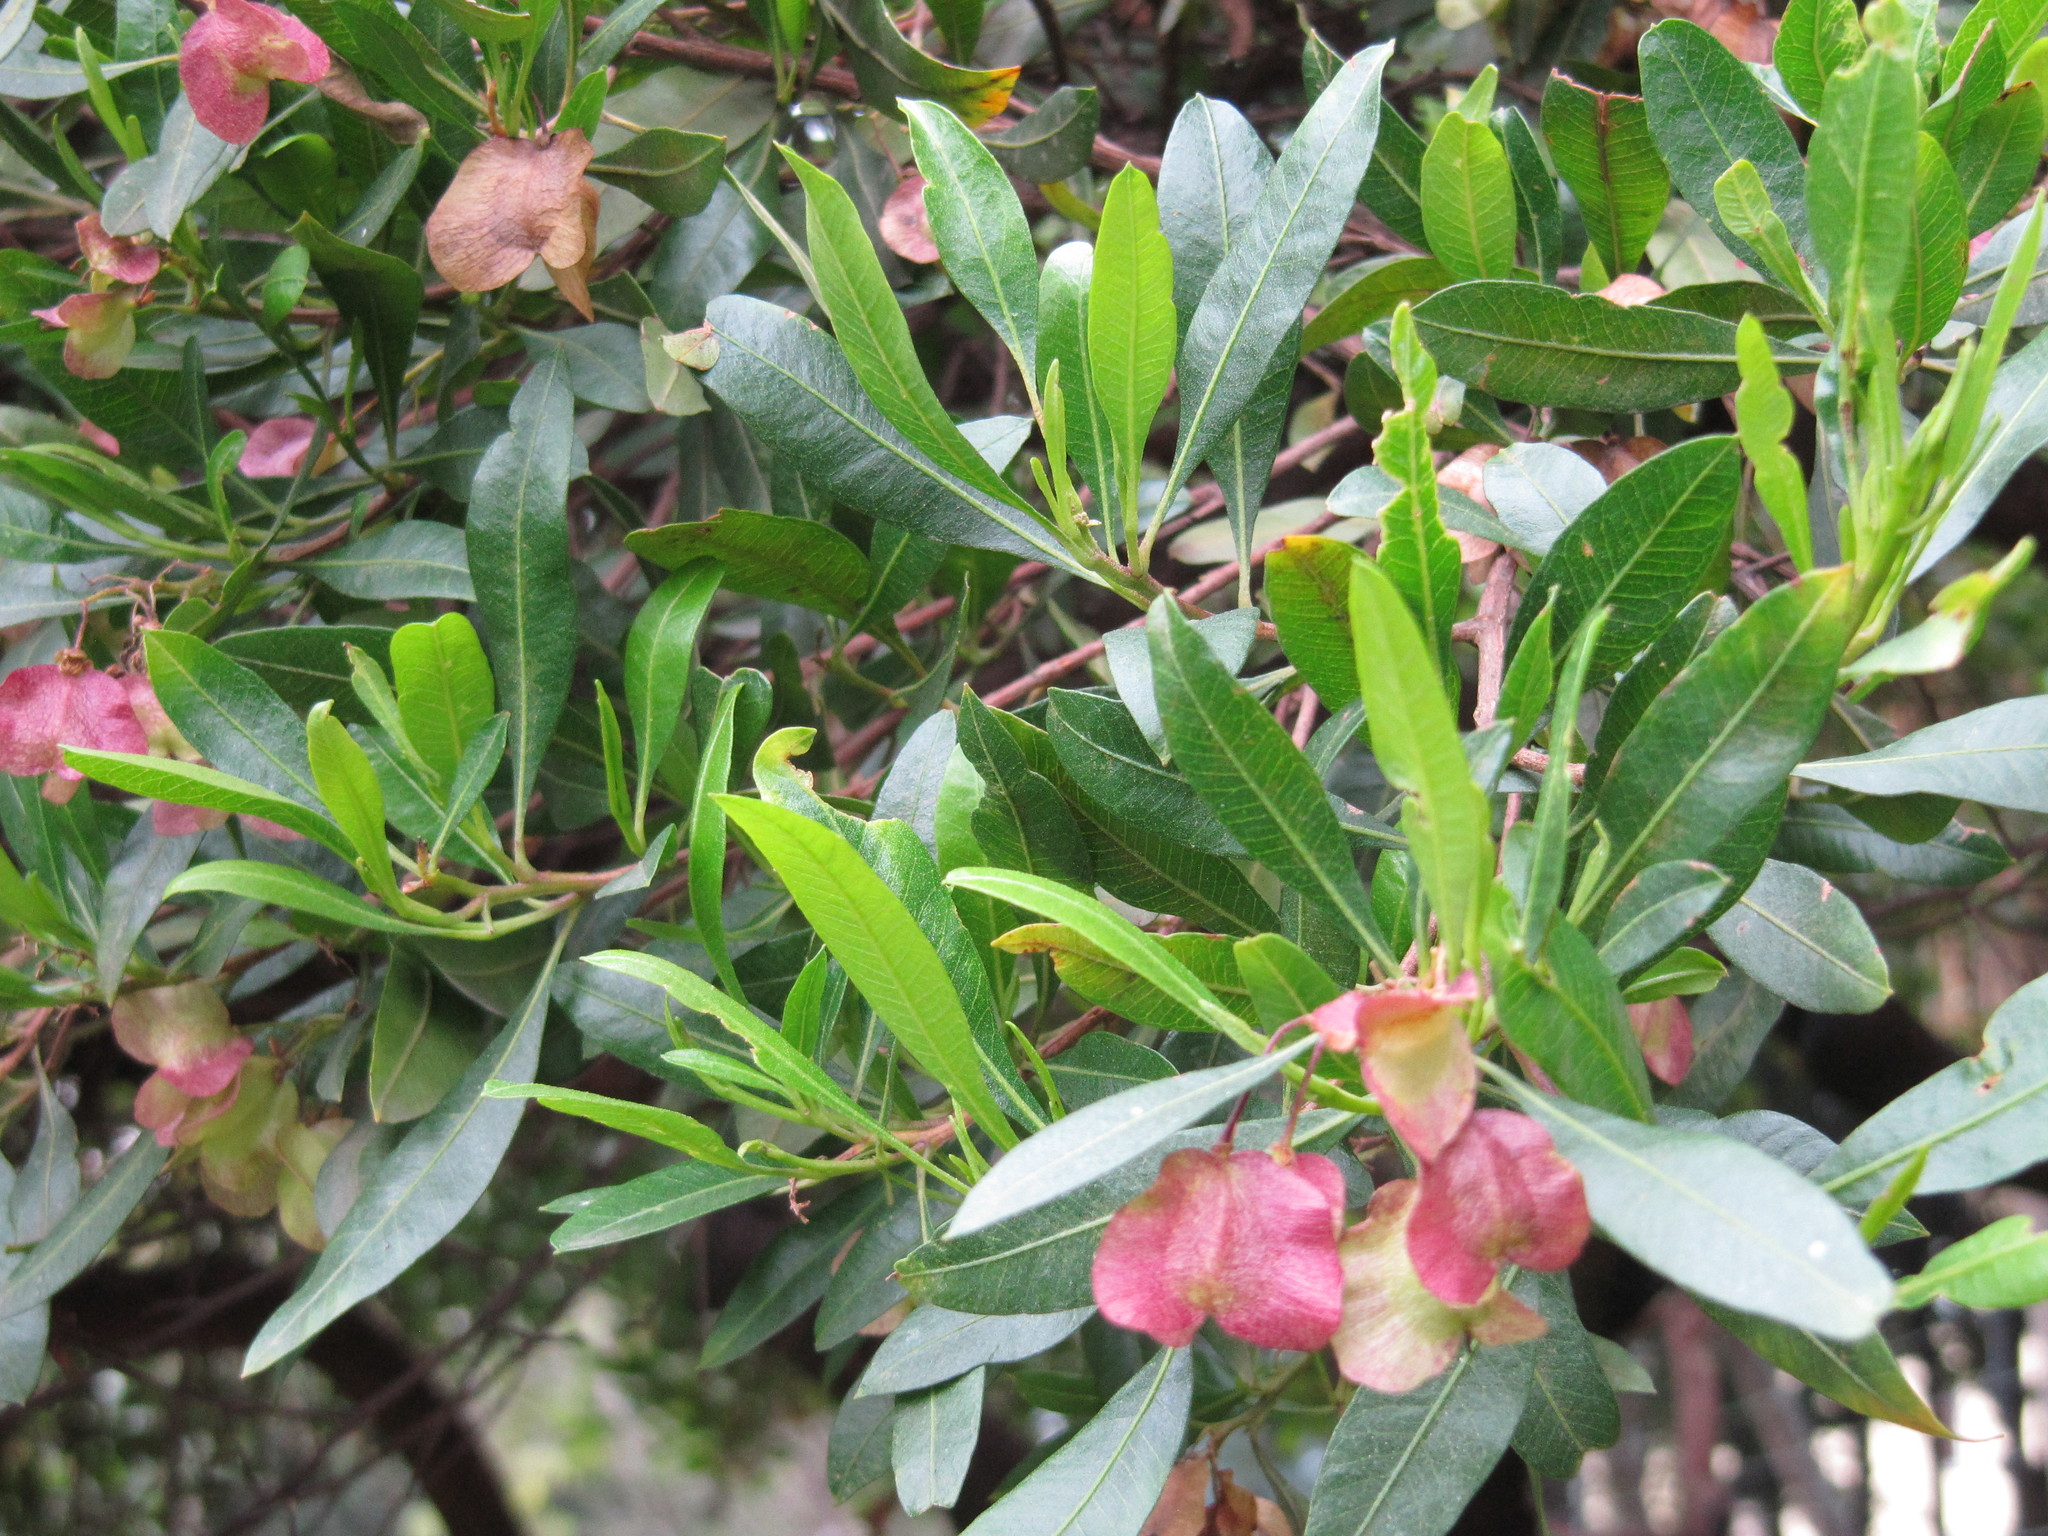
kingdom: Plantae
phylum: Tracheophyta
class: Magnoliopsida
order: Sapindales
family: Sapindaceae
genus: Dodonaea
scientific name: Dodonaea viscosa
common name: Hopbush
